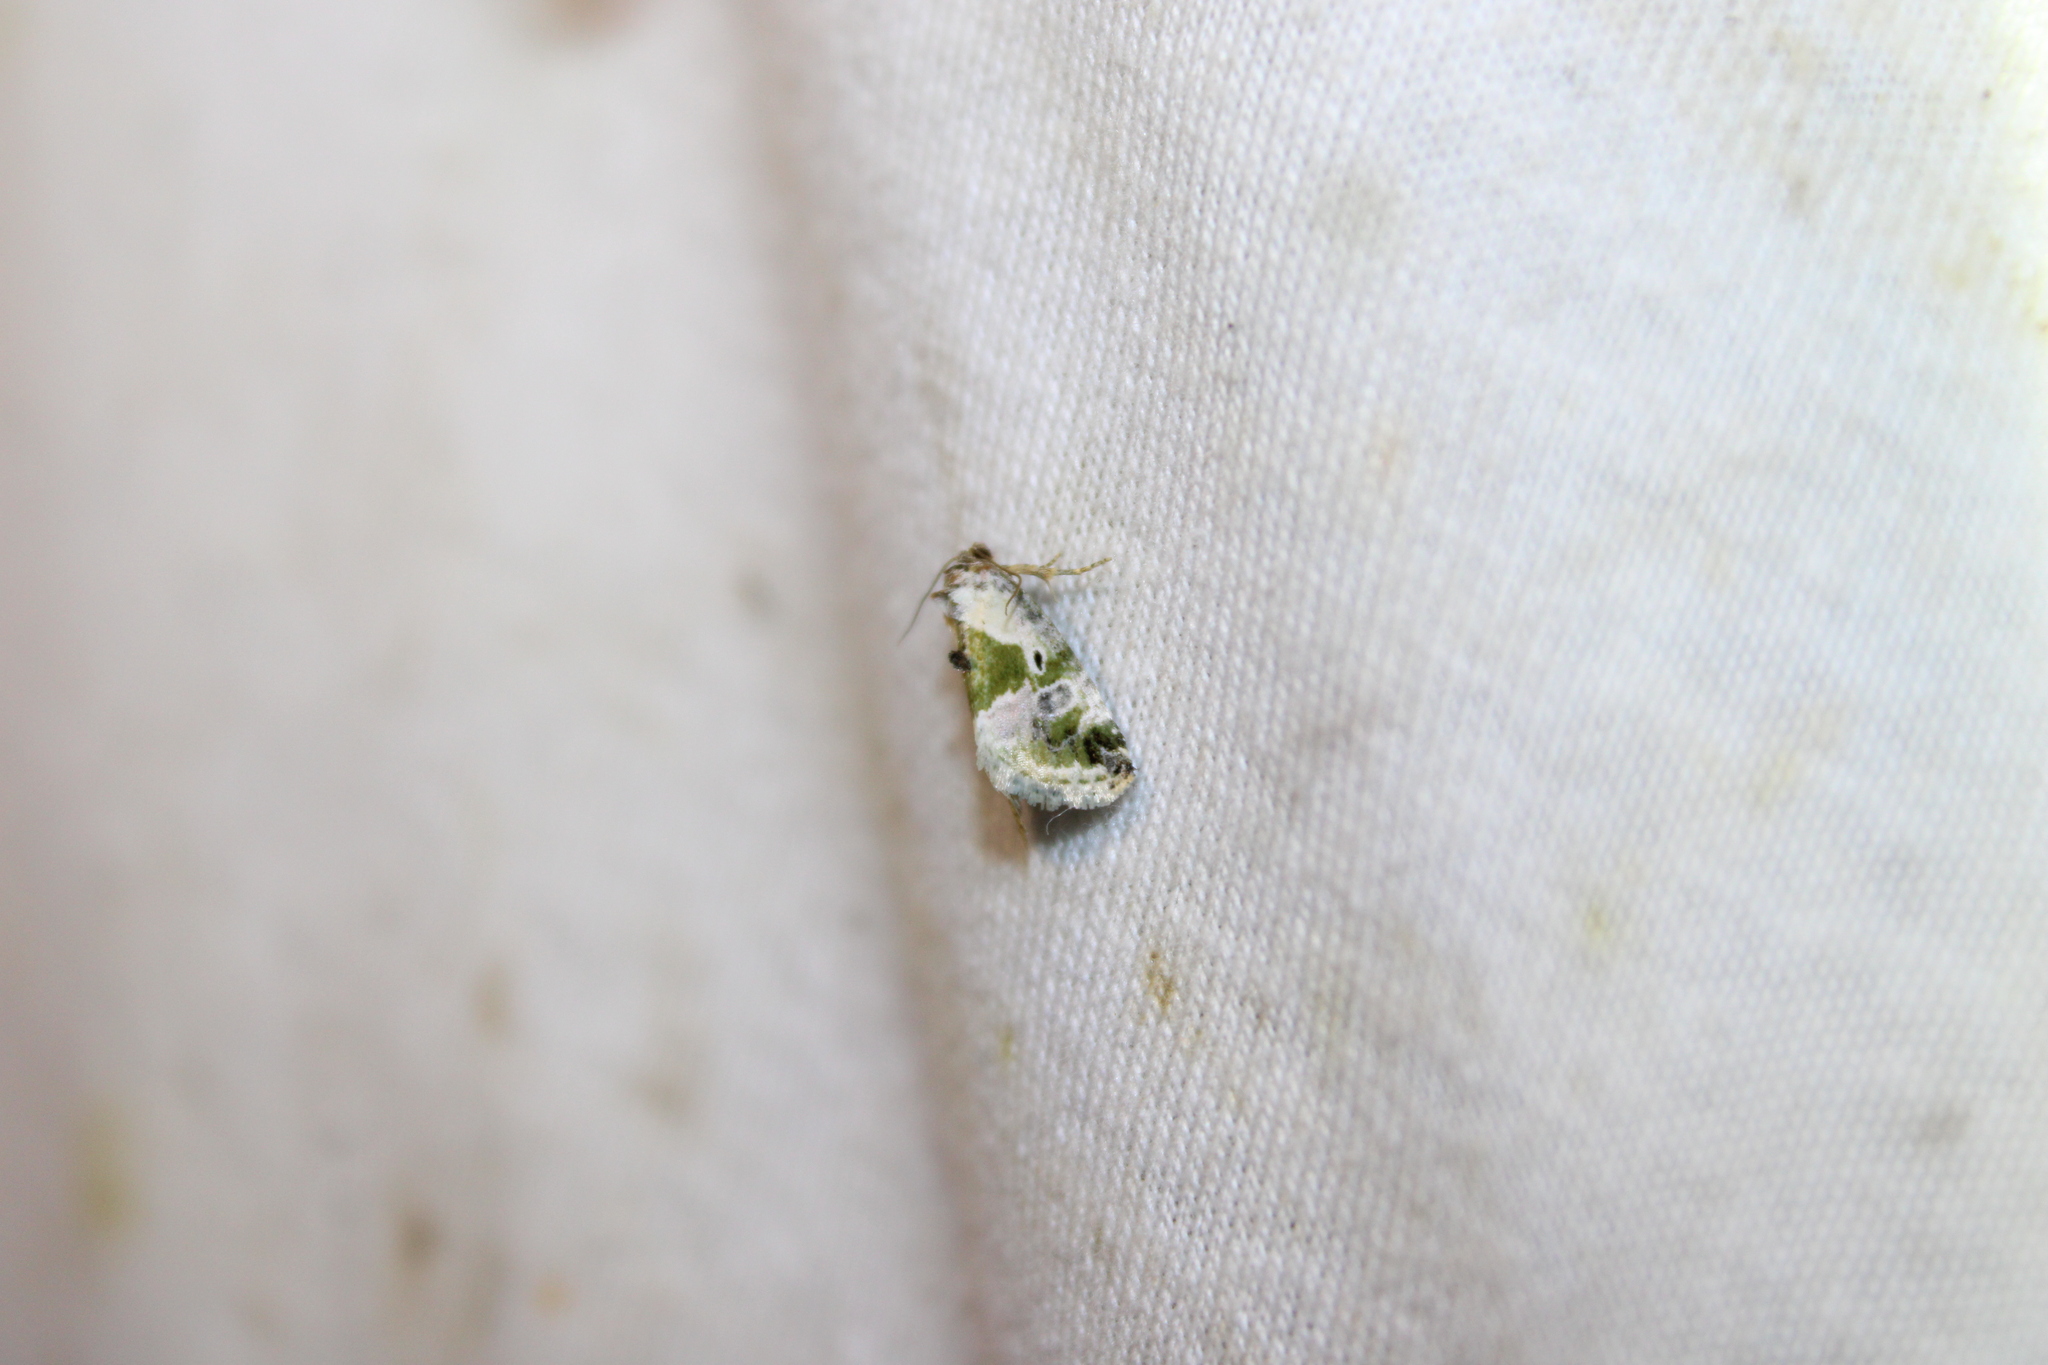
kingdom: Animalia
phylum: Arthropoda
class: Insecta
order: Lepidoptera
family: Noctuidae
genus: Maliattha
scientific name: Maliattha synochitis
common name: Black-dotted glyph
